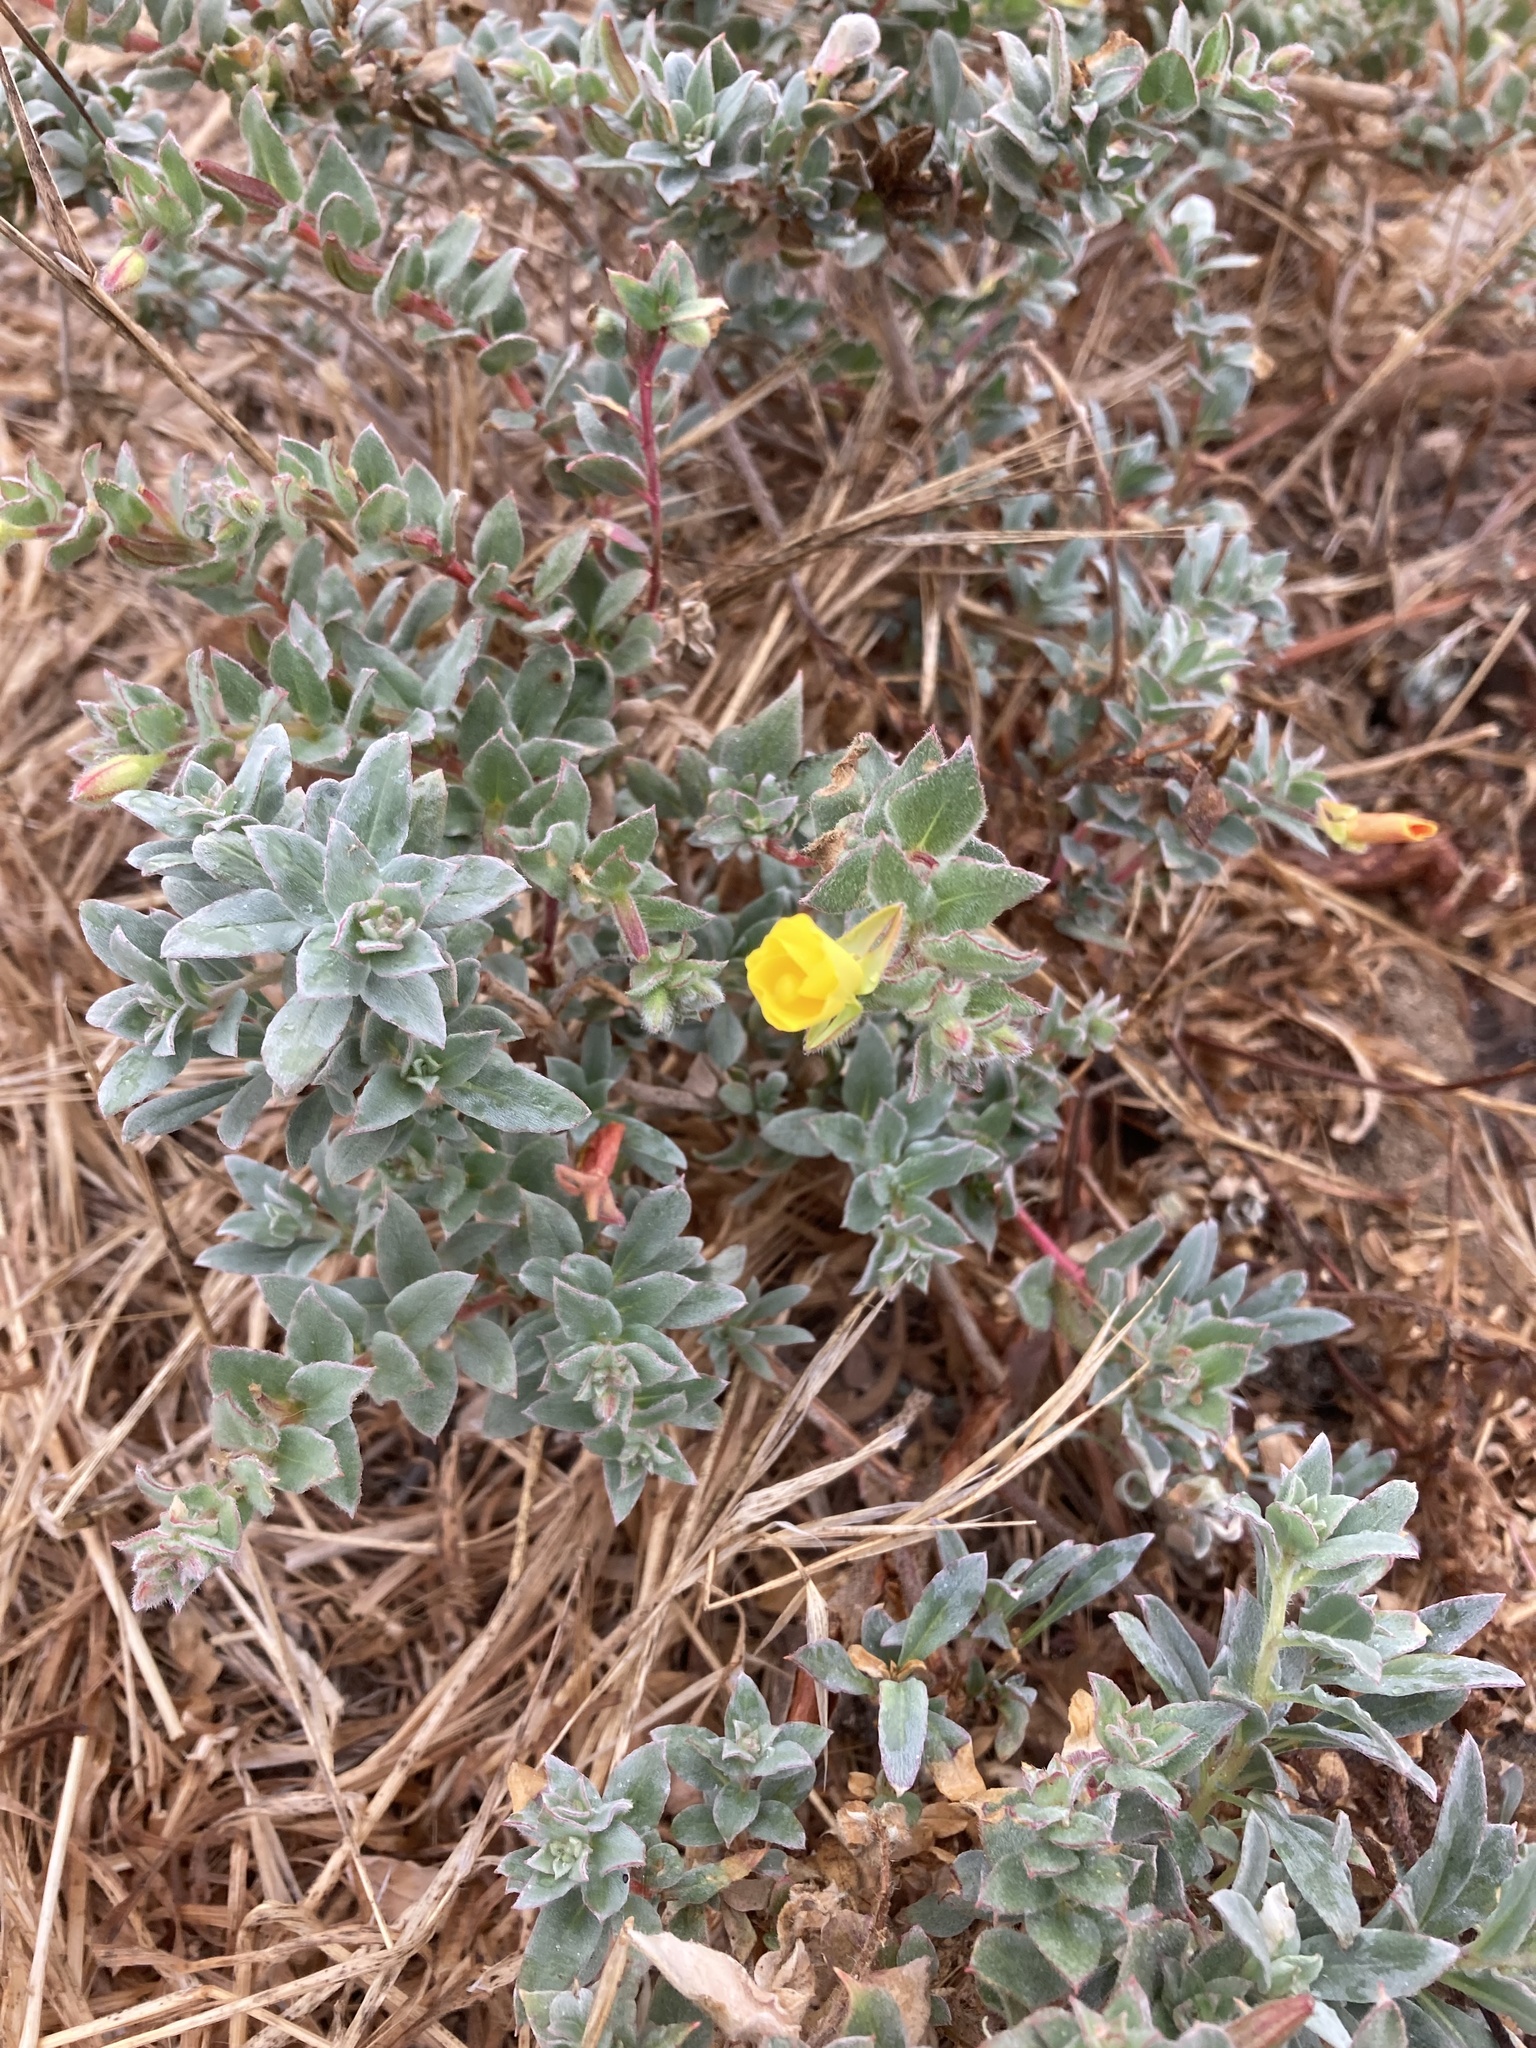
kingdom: Plantae
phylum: Tracheophyta
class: Magnoliopsida
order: Myrtales
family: Onagraceae
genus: Camissoniopsis
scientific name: Camissoniopsis cheiranthifolia
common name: Beach suncup
